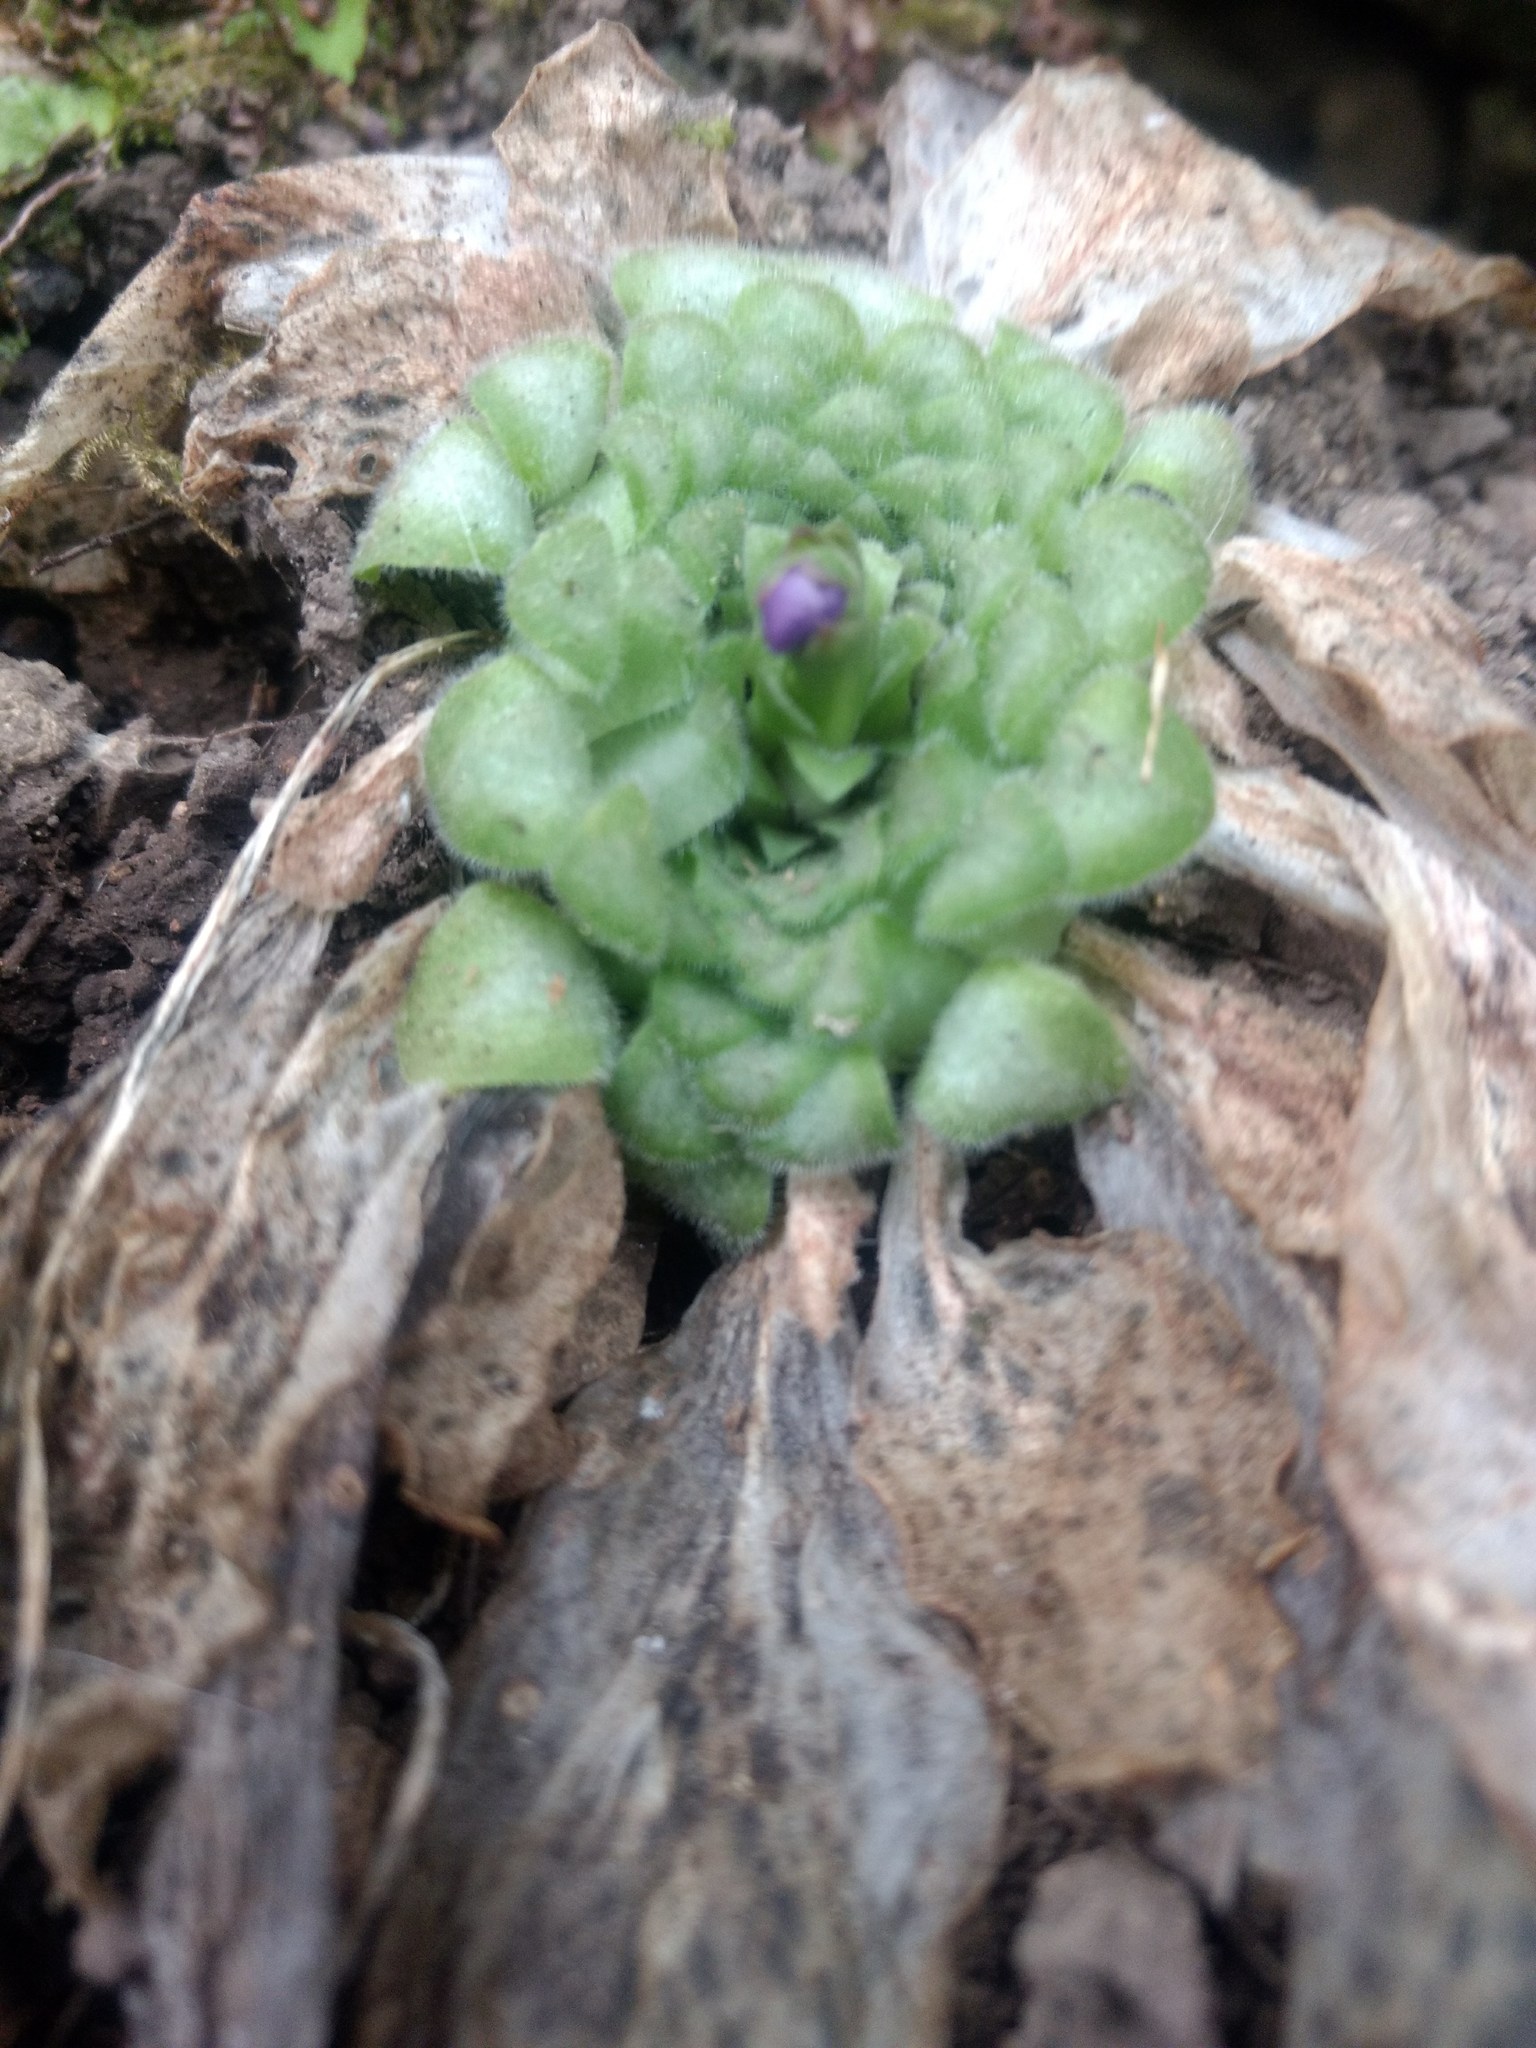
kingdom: Plantae
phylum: Tracheophyta
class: Magnoliopsida
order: Lamiales
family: Lentibulariaceae
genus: Pinguicula
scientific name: Pinguicula moranensis
